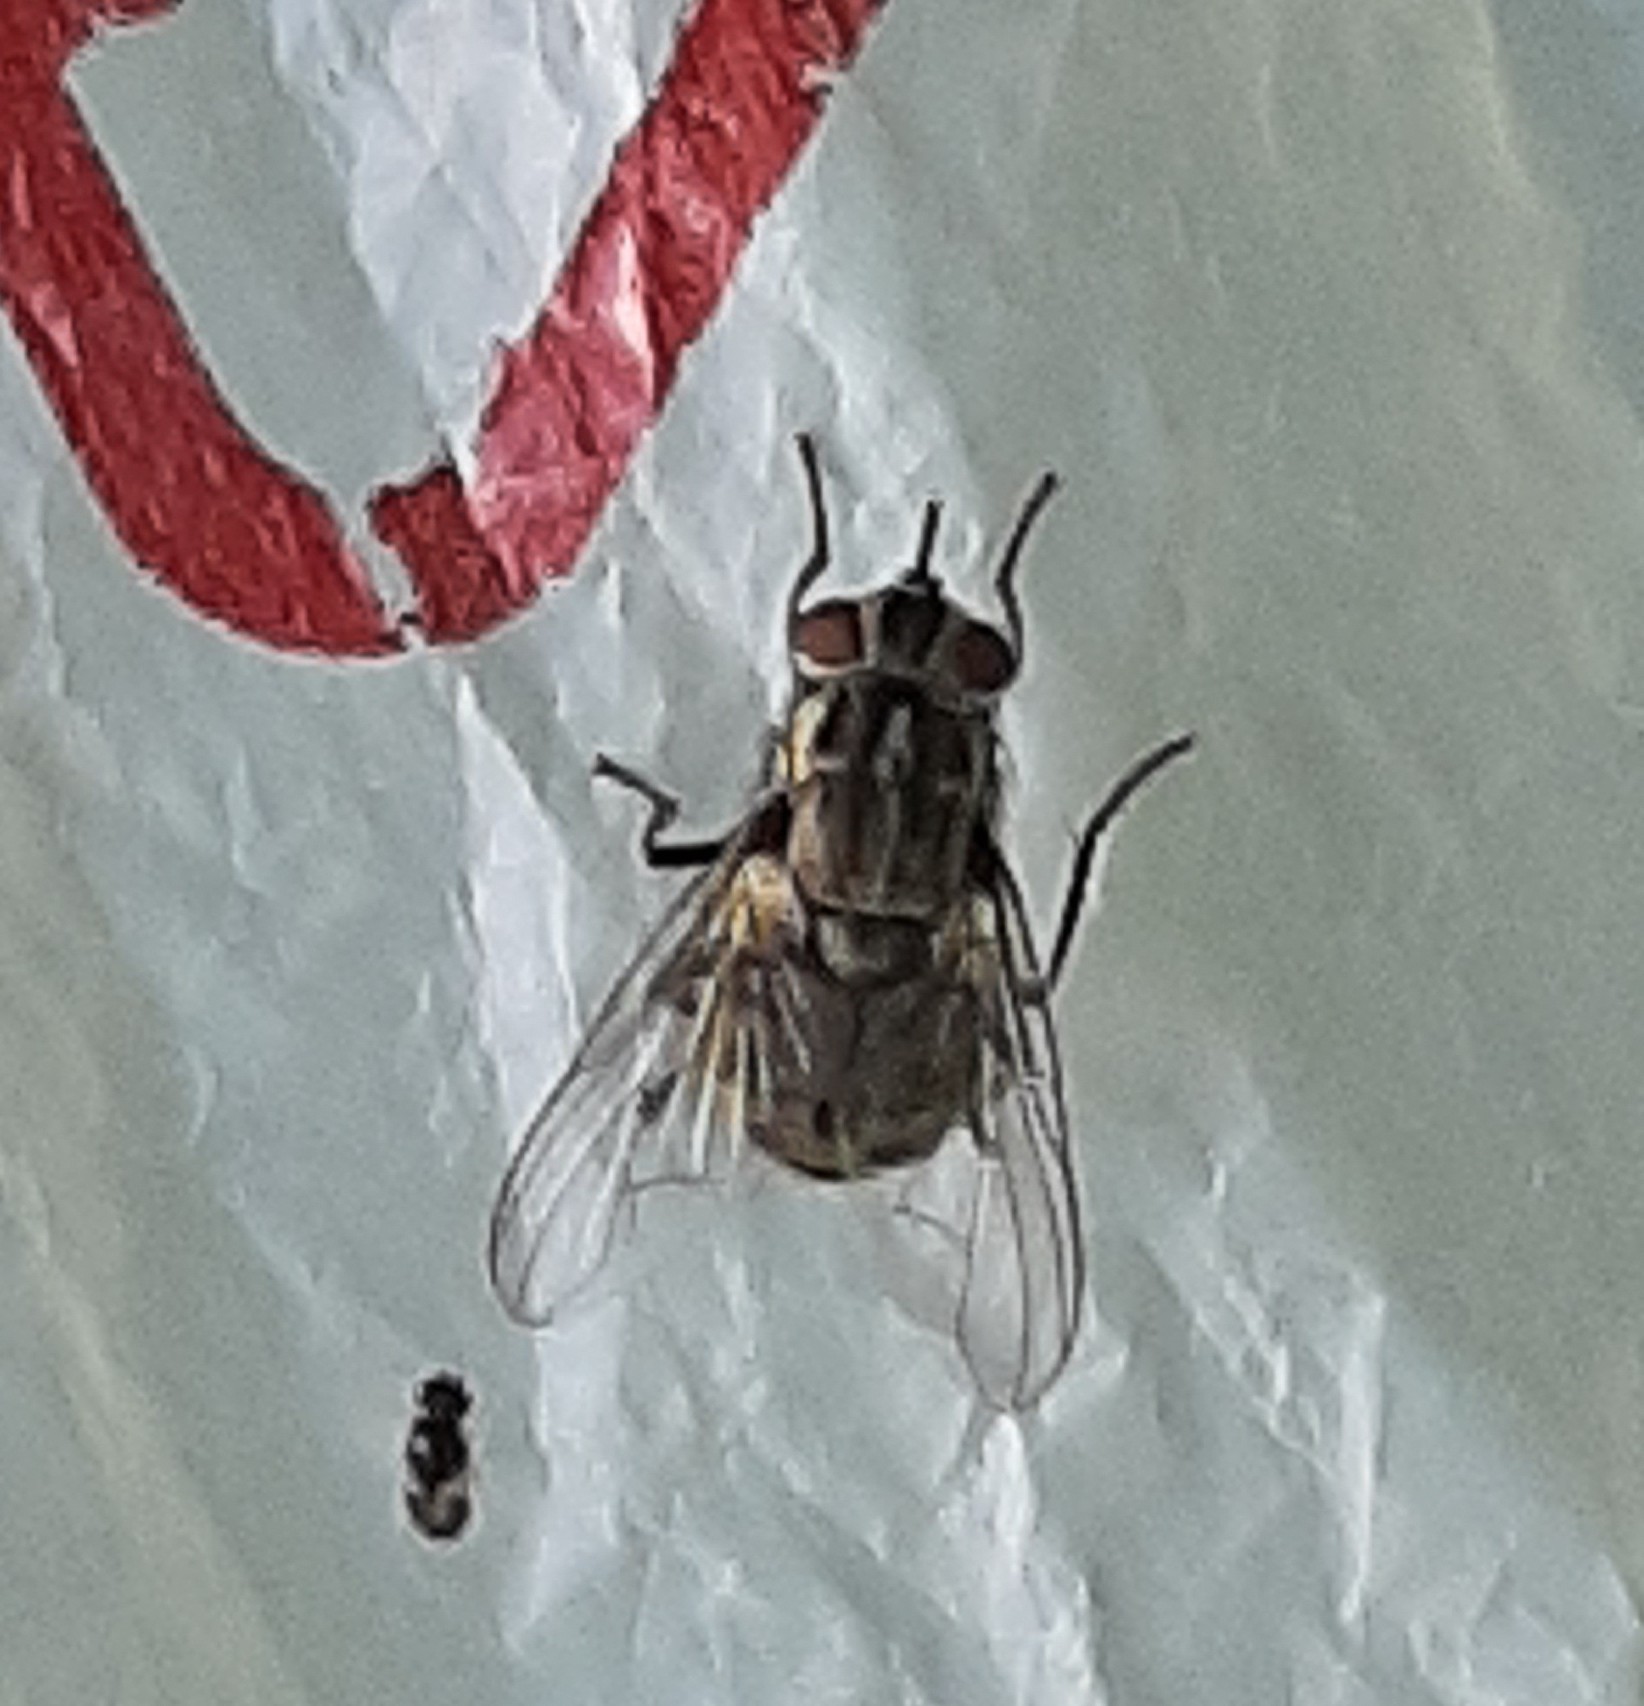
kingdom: Animalia
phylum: Arthropoda
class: Insecta
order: Diptera
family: Muscidae
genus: Stomoxys
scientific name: Stomoxys calcitrans
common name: Stable fly
